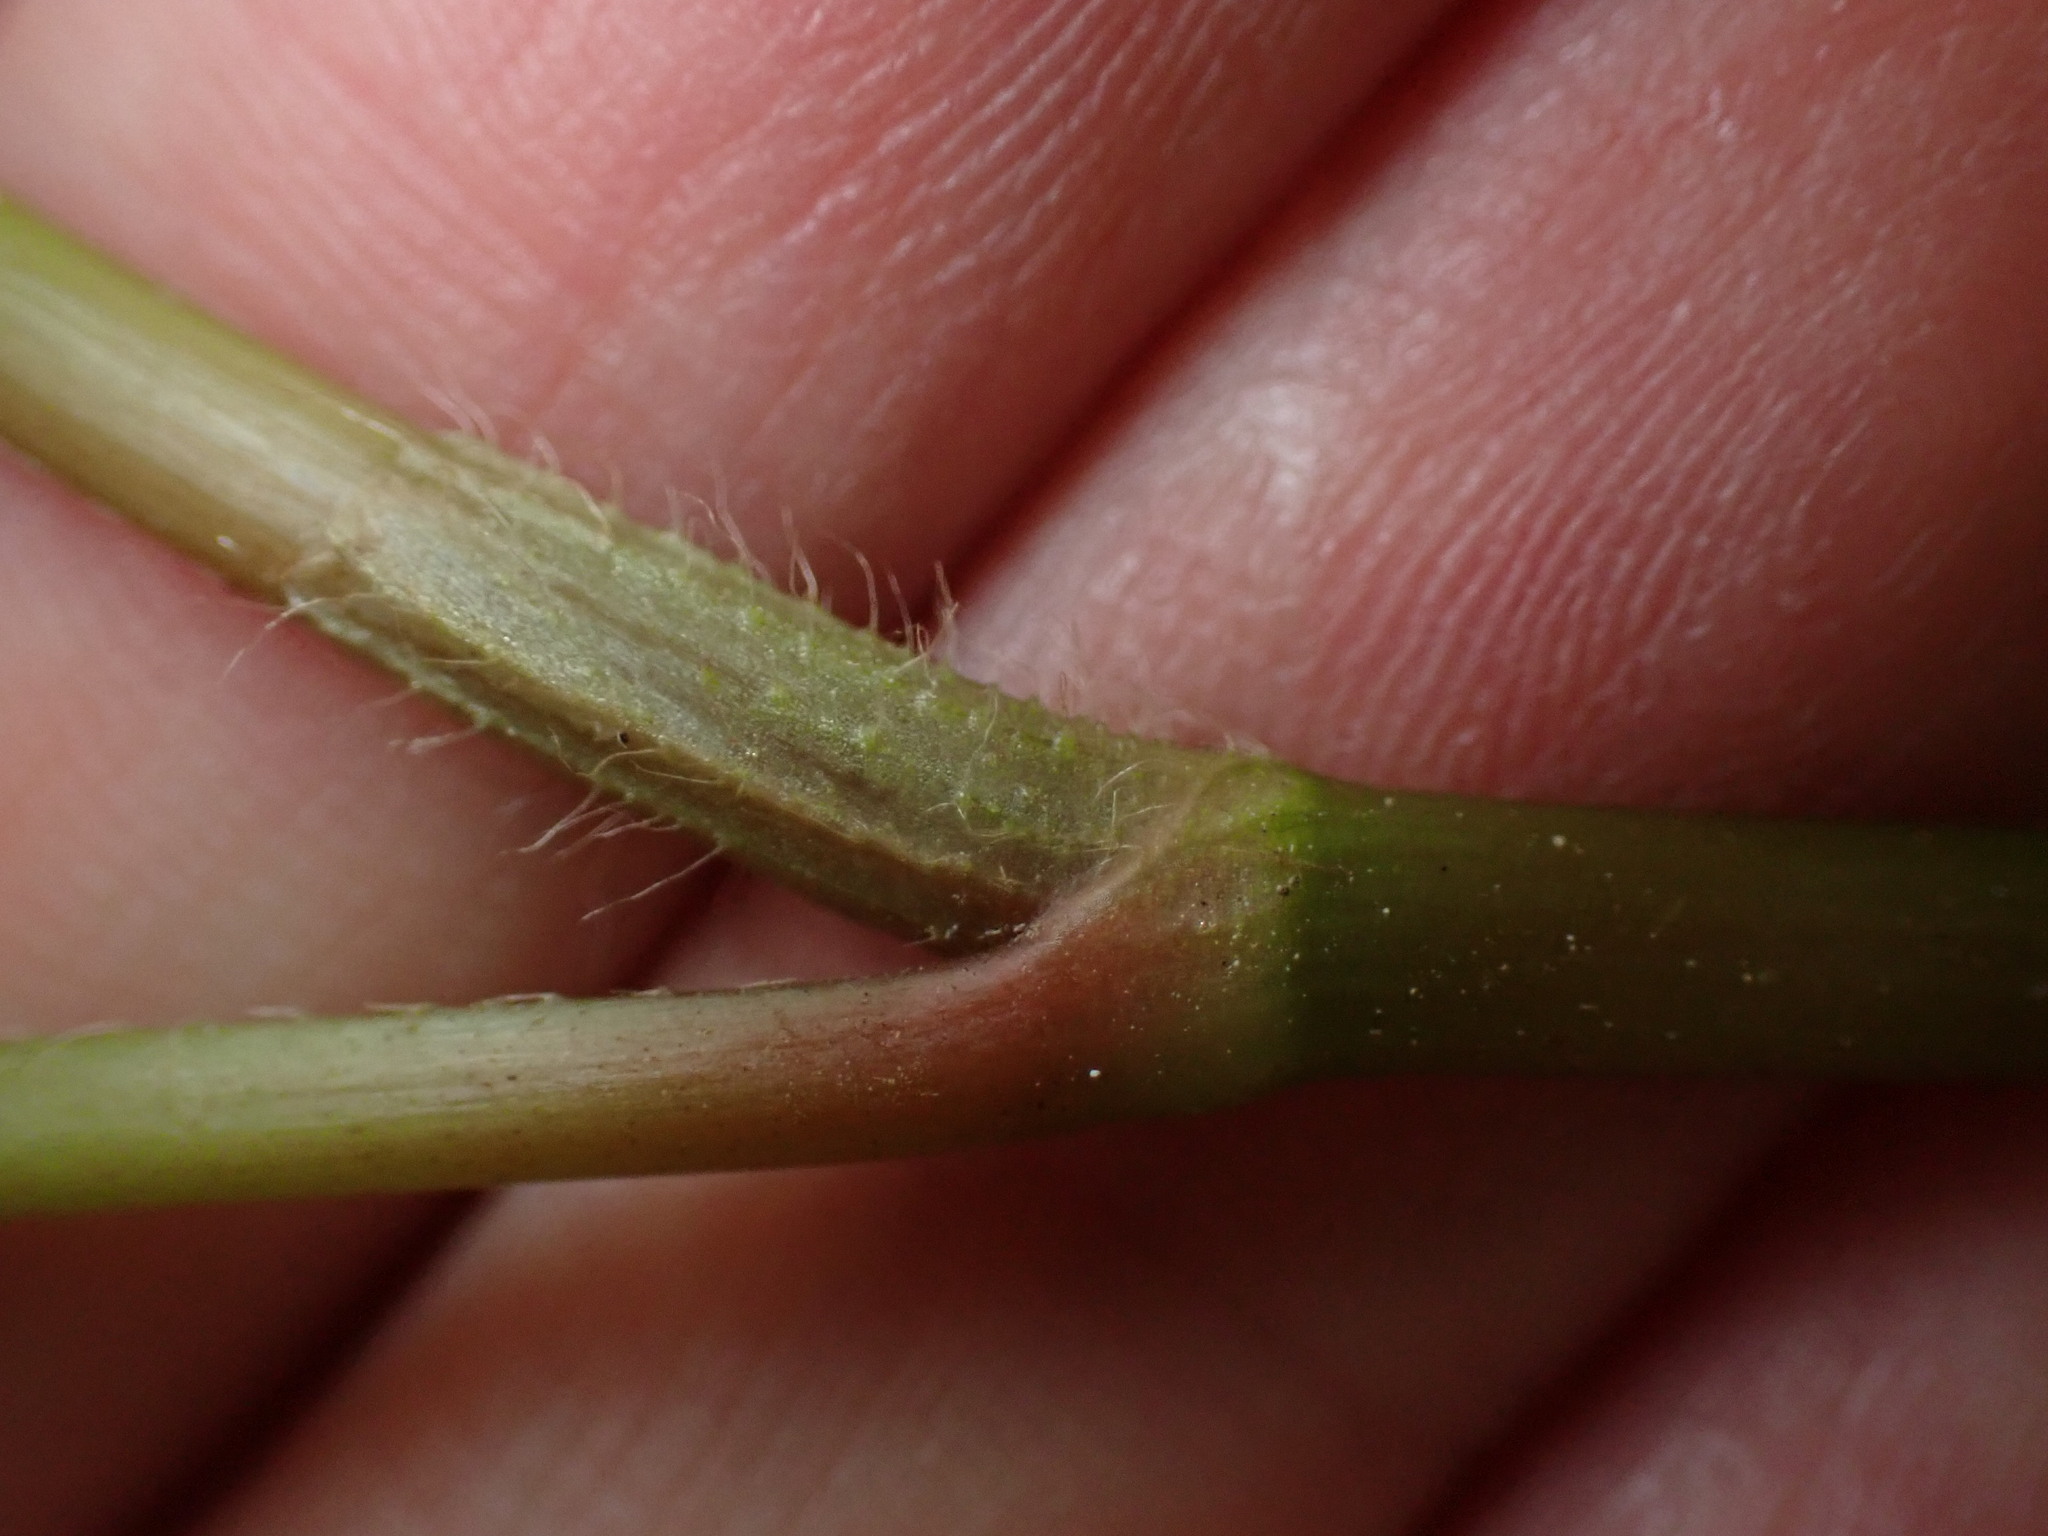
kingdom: Plantae
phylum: Tracheophyta
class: Magnoliopsida
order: Caryophyllales
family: Polygonaceae
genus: Persicaria
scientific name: Persicaria filiformis
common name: Asian jumpseed
